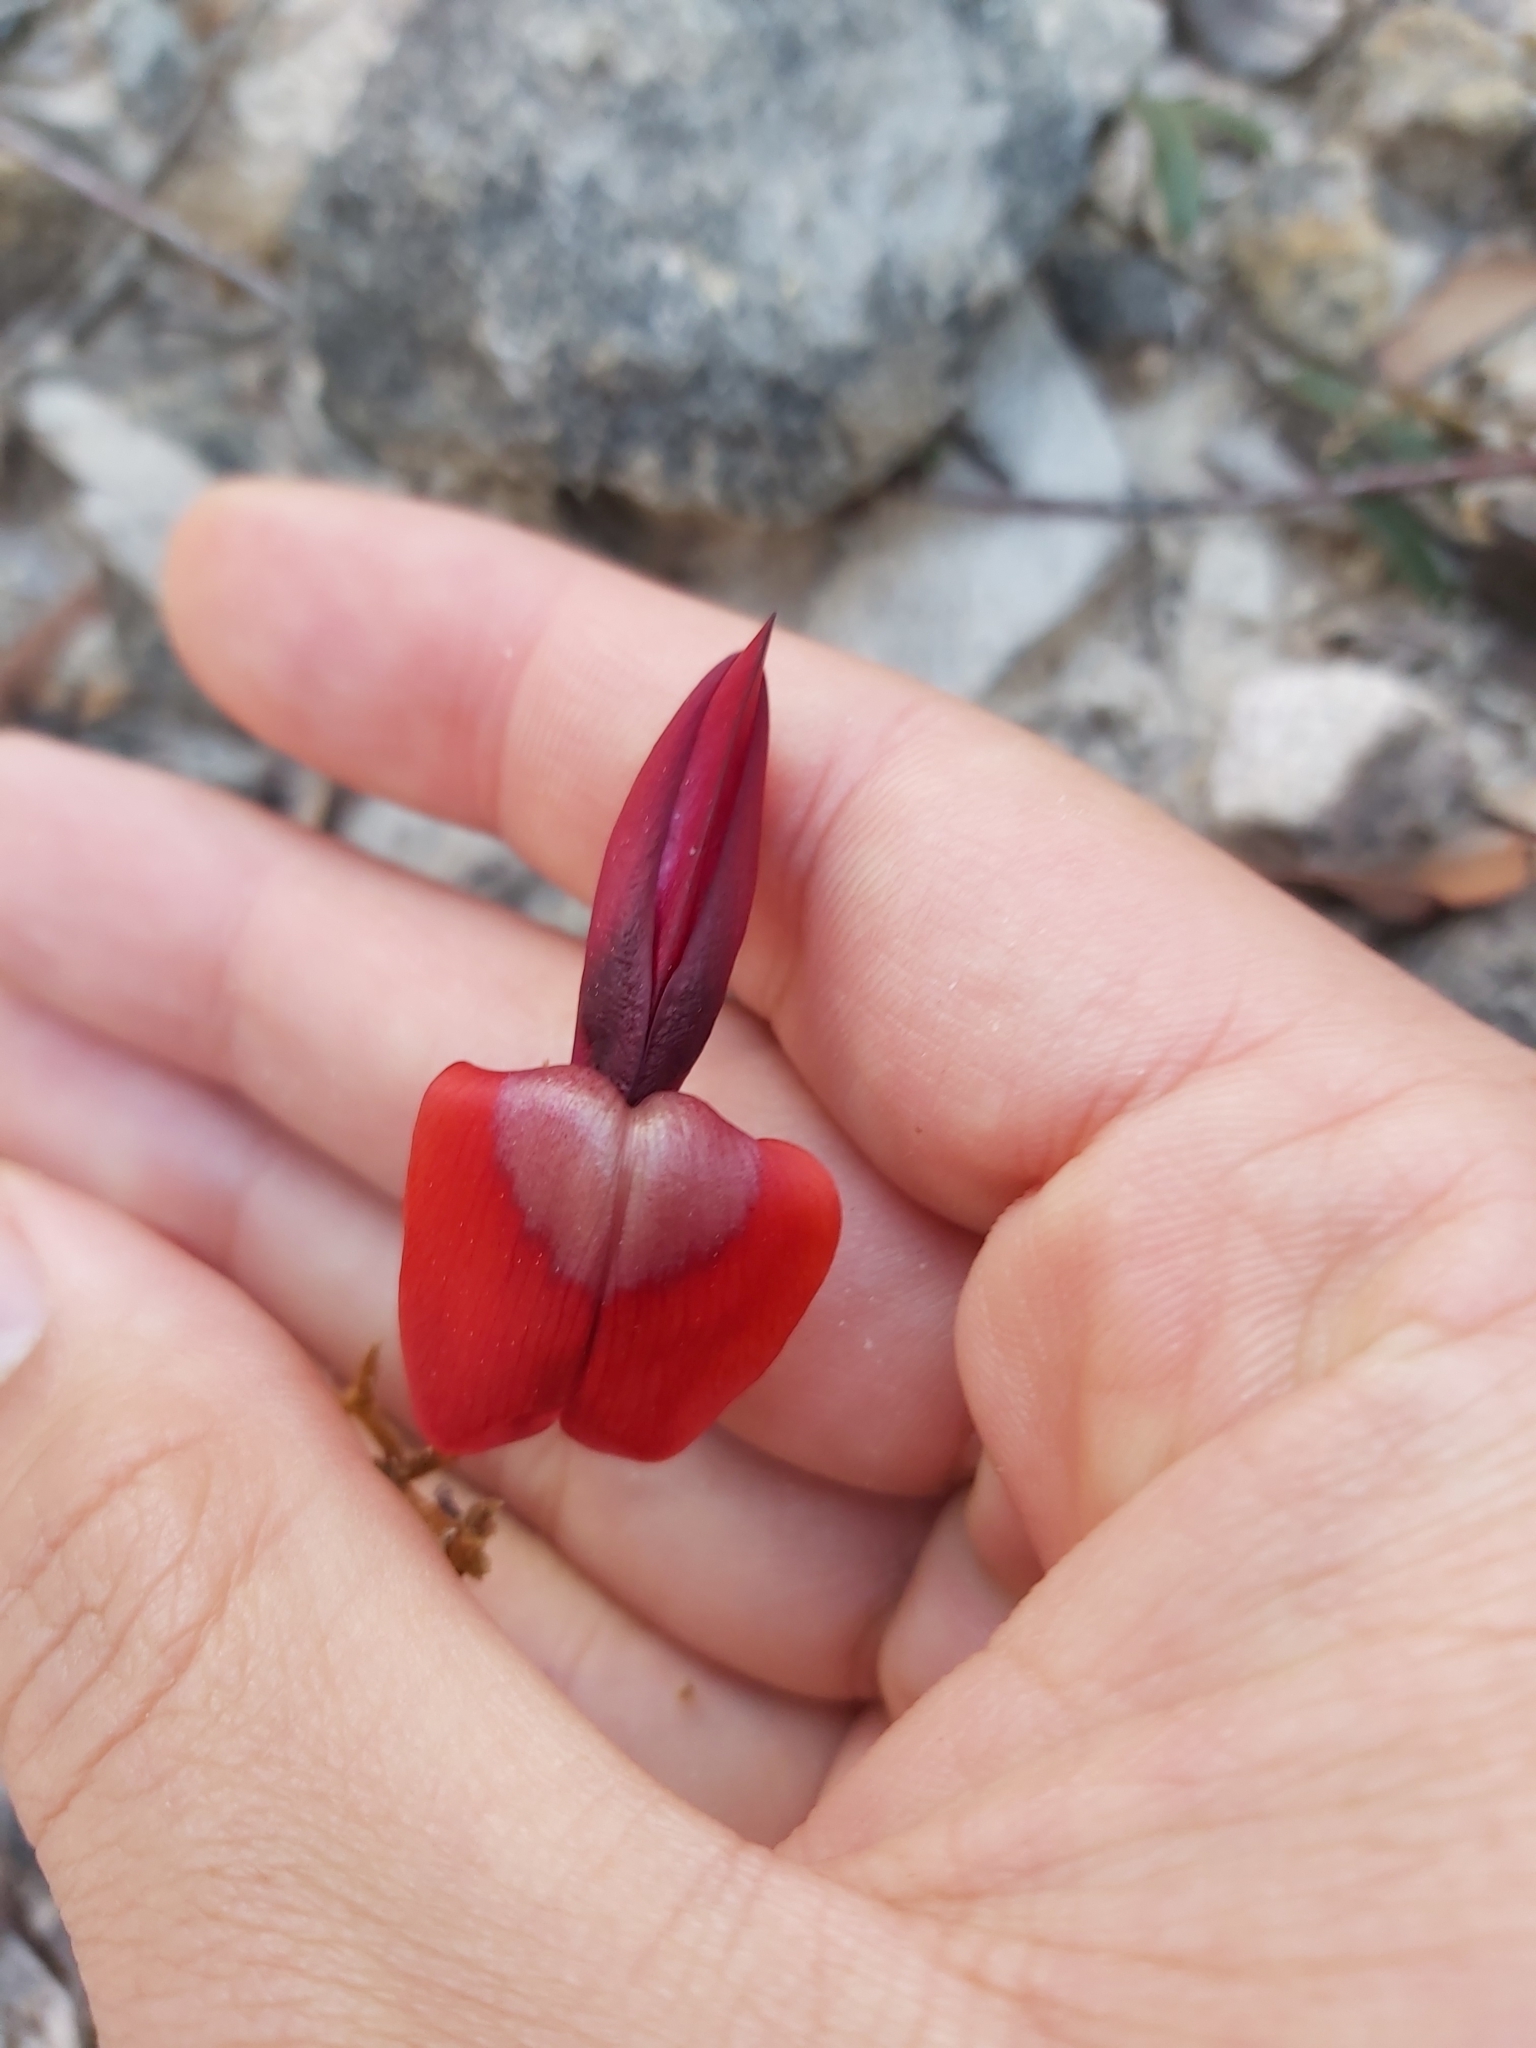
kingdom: Plantae
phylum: Tracheophyta
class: Magnoliopsida
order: Fabales
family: Fabaceae
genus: Kennedia
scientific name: Kennedia rubicunda
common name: Red kennedy-pea
